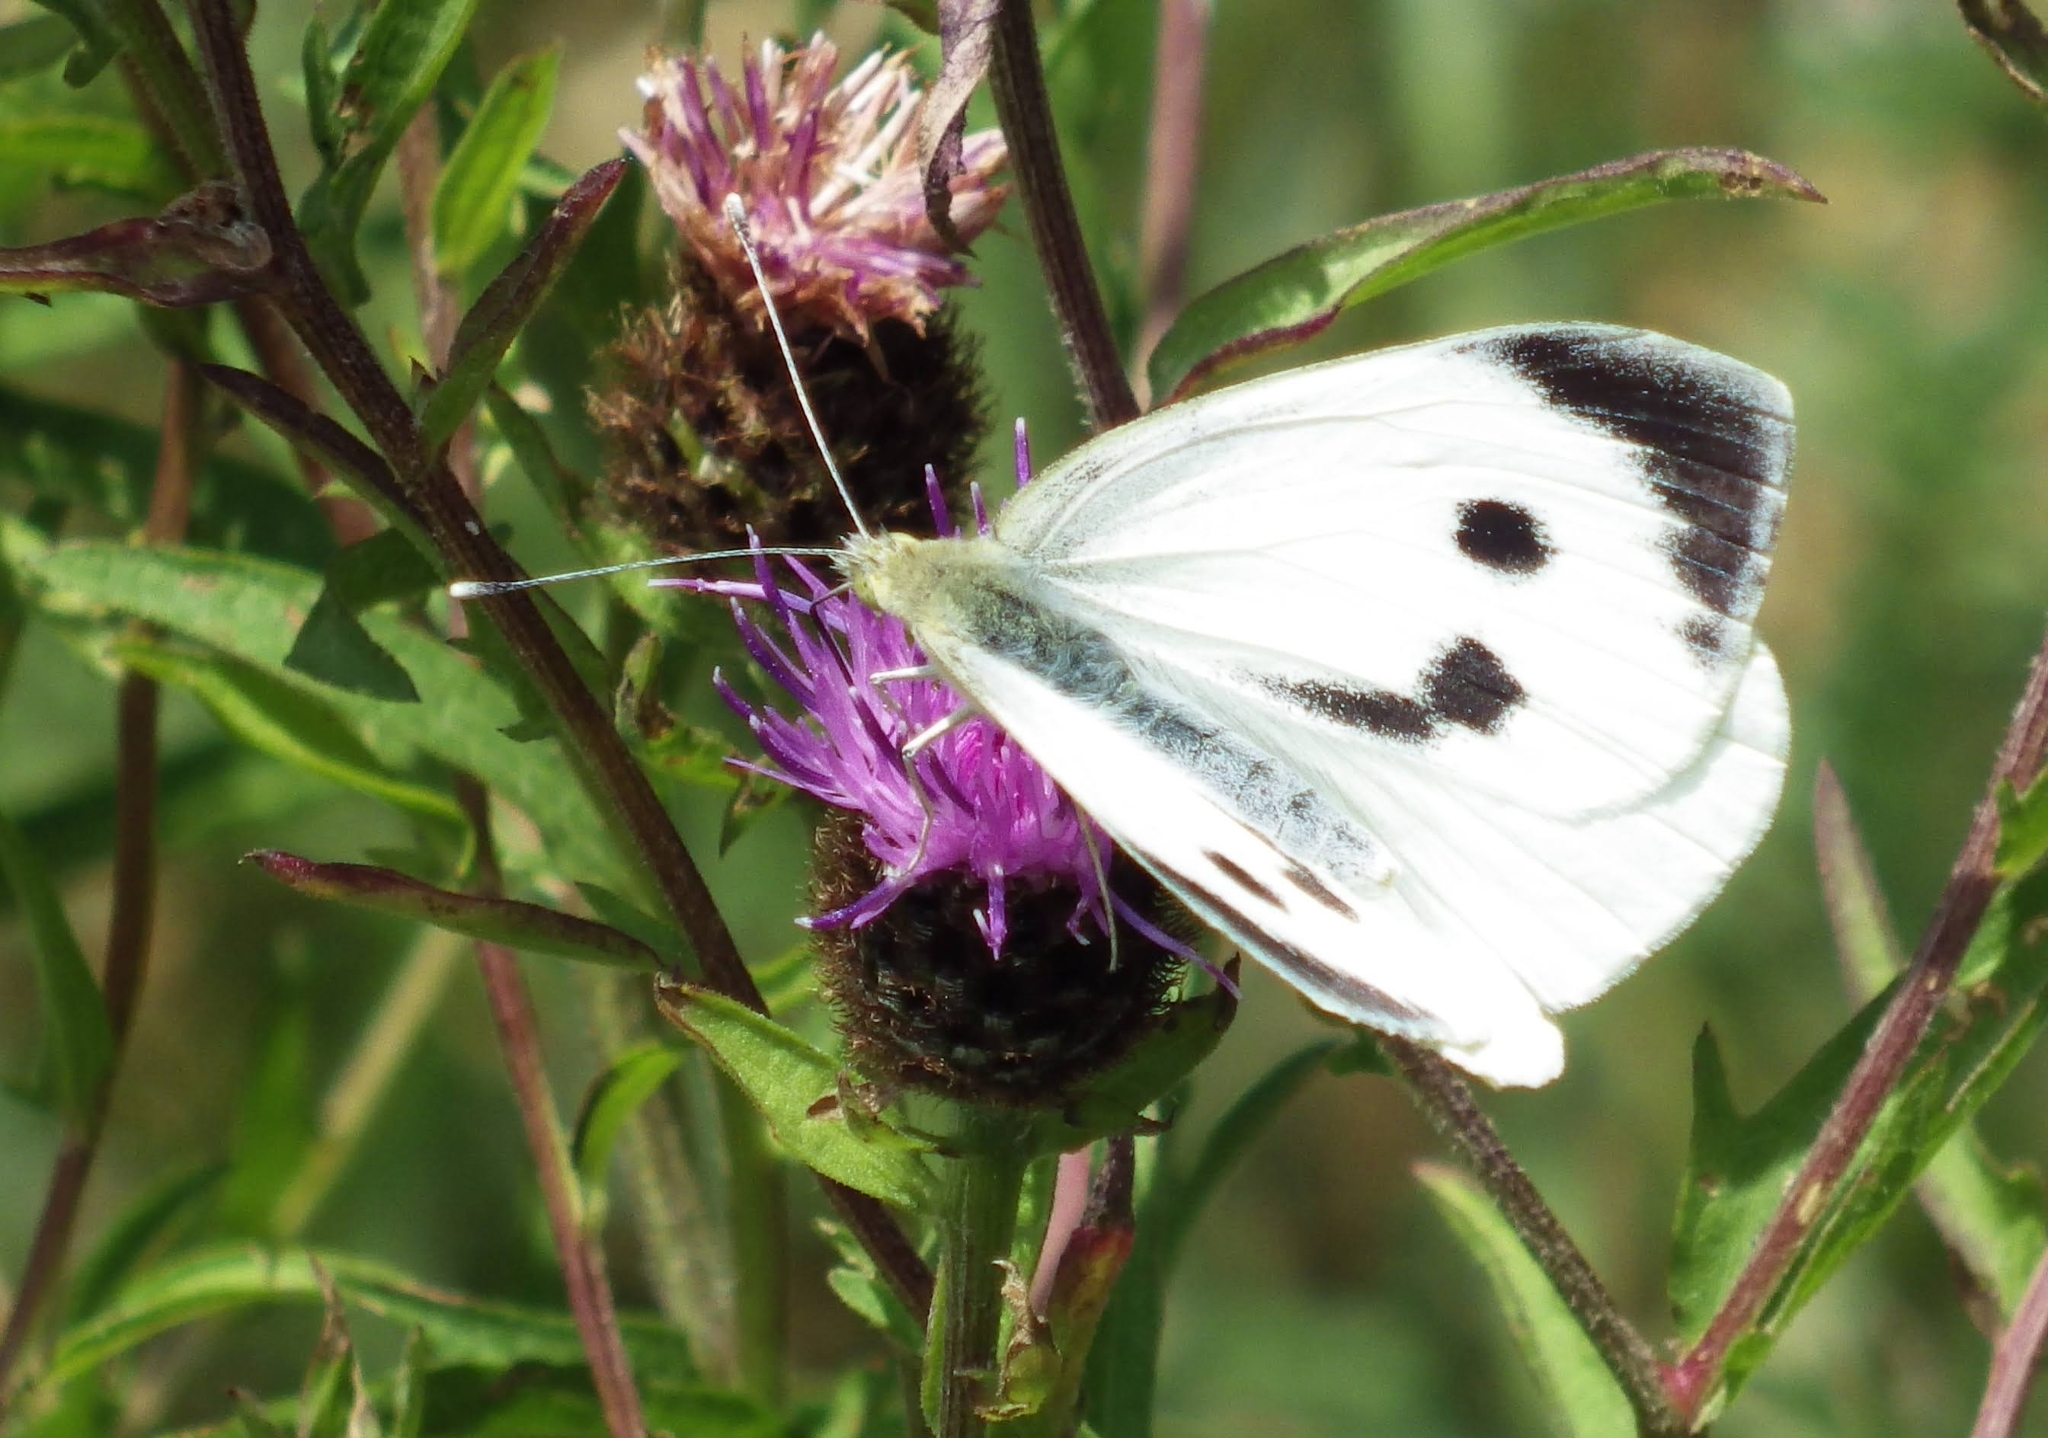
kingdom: Animalia
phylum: Arthropoda
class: Insecta
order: Lepidoptera
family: Pieridae
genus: Pieris
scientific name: Pieris brassicae
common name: Large white
